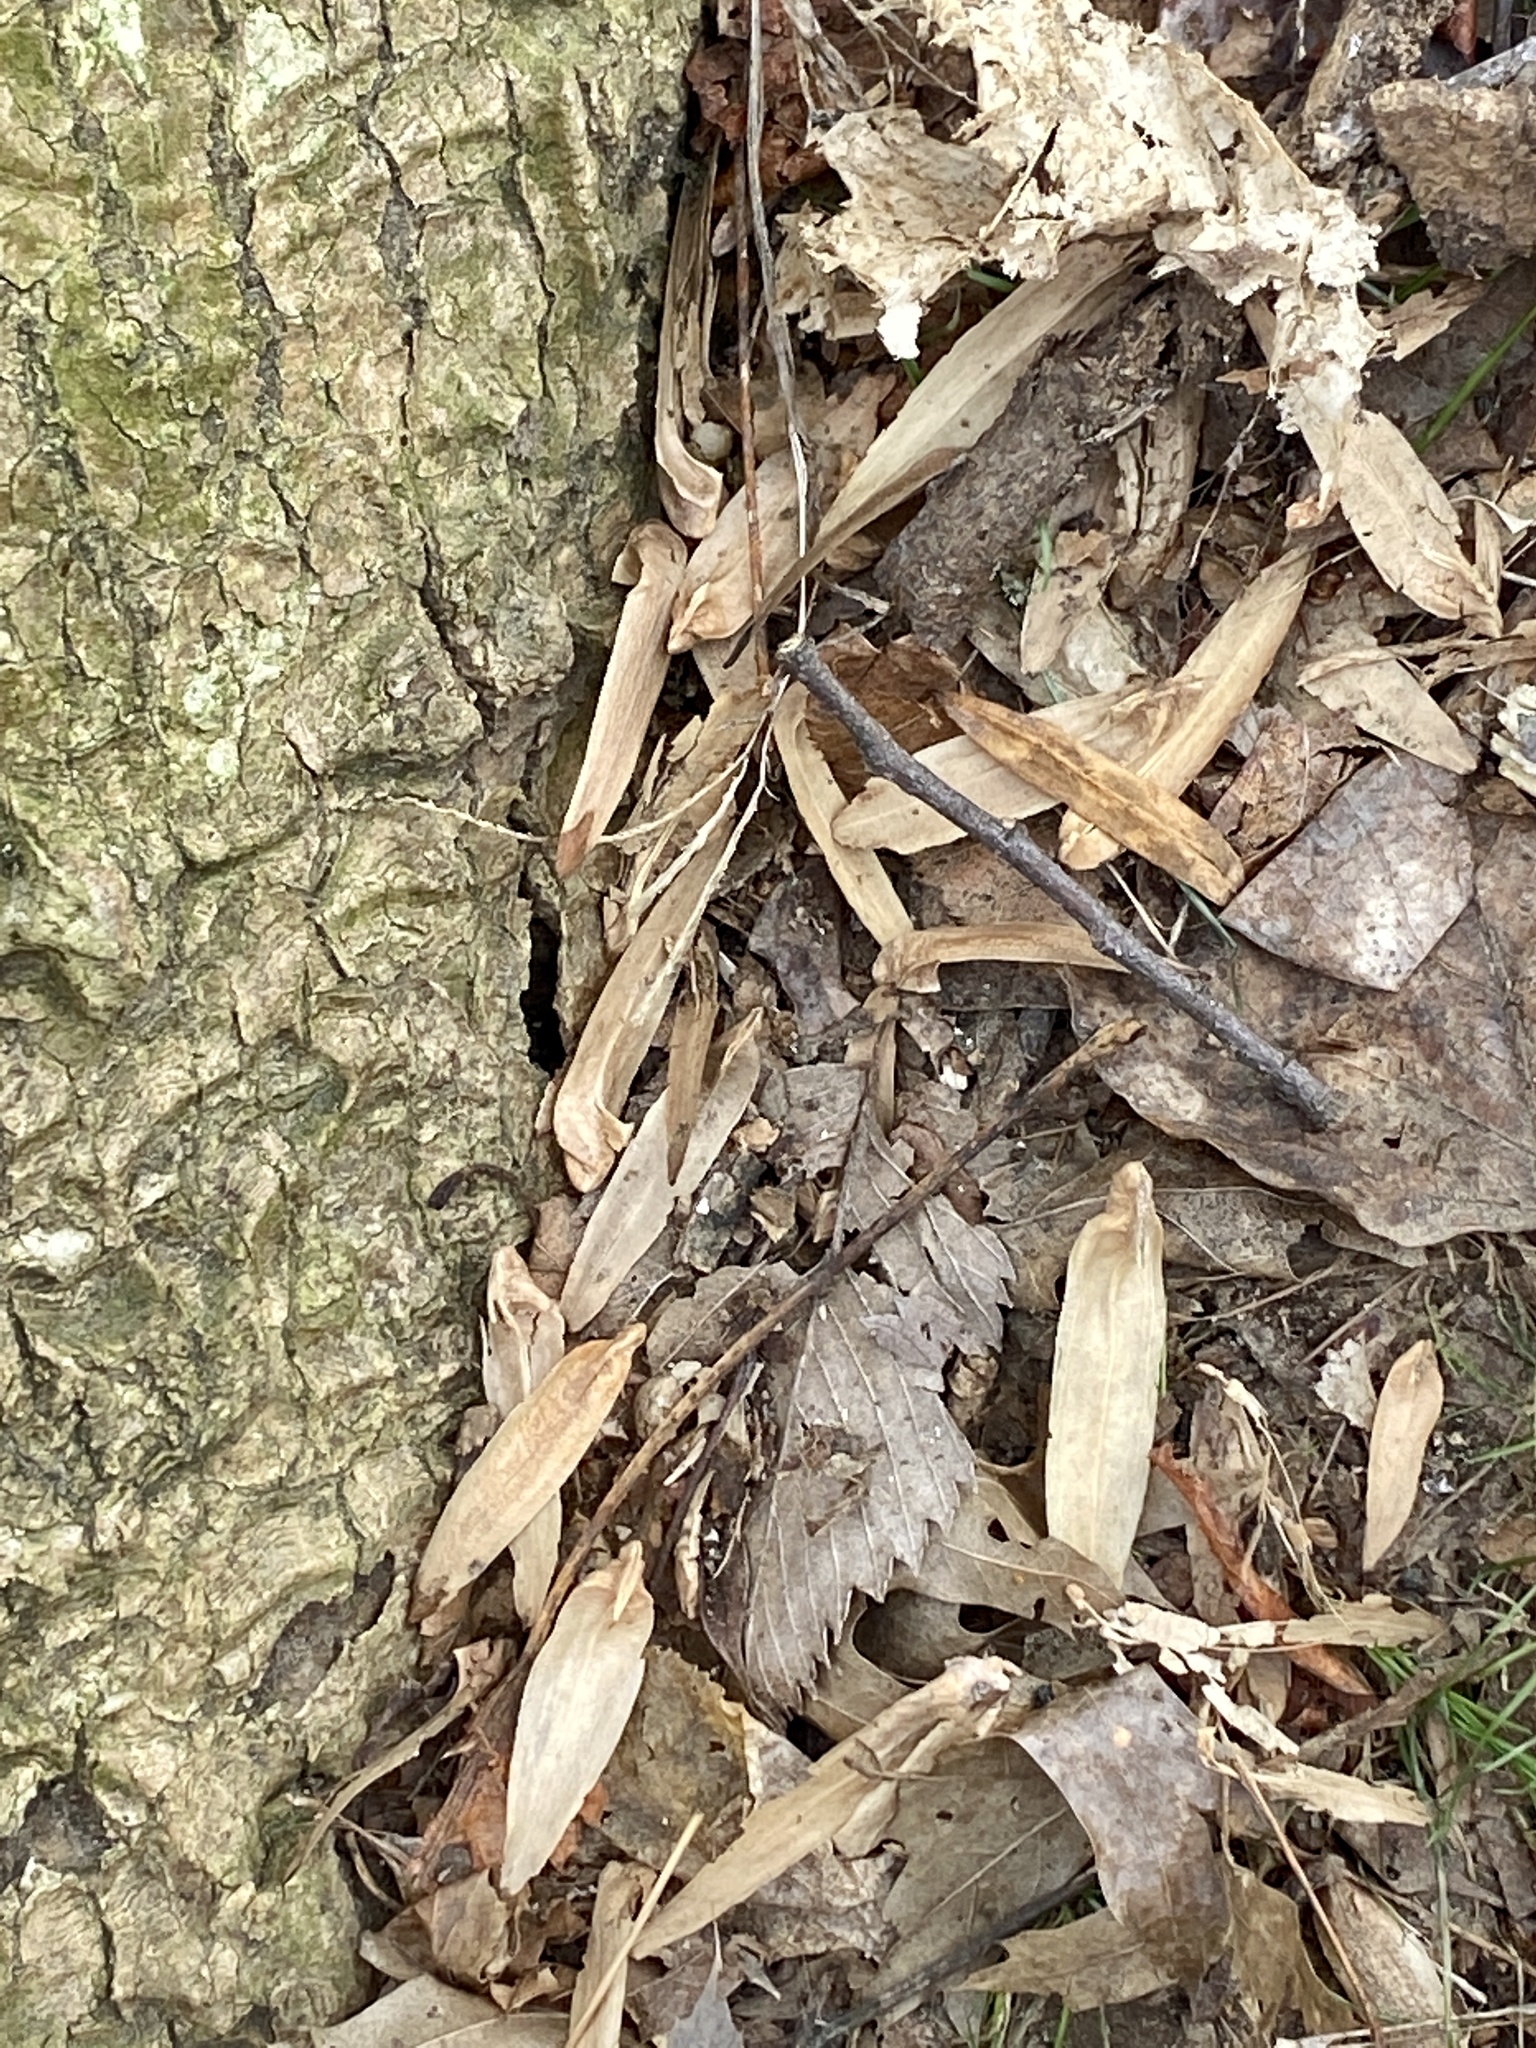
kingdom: Plantae
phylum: Tracheophyta
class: Magnoliopsida
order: Magnoliales
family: Magnoliaceae
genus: Liriodendron
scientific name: Liriodendron tulipifera
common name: Tulip tree
